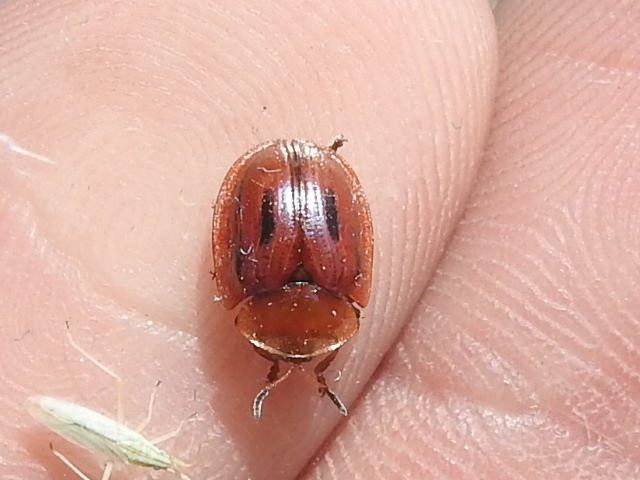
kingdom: Animalia
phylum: Arthropoda
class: Insecta
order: Coleoptera
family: Chrysomelidae
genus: Jonthonota
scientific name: Jonthonota mexicana
